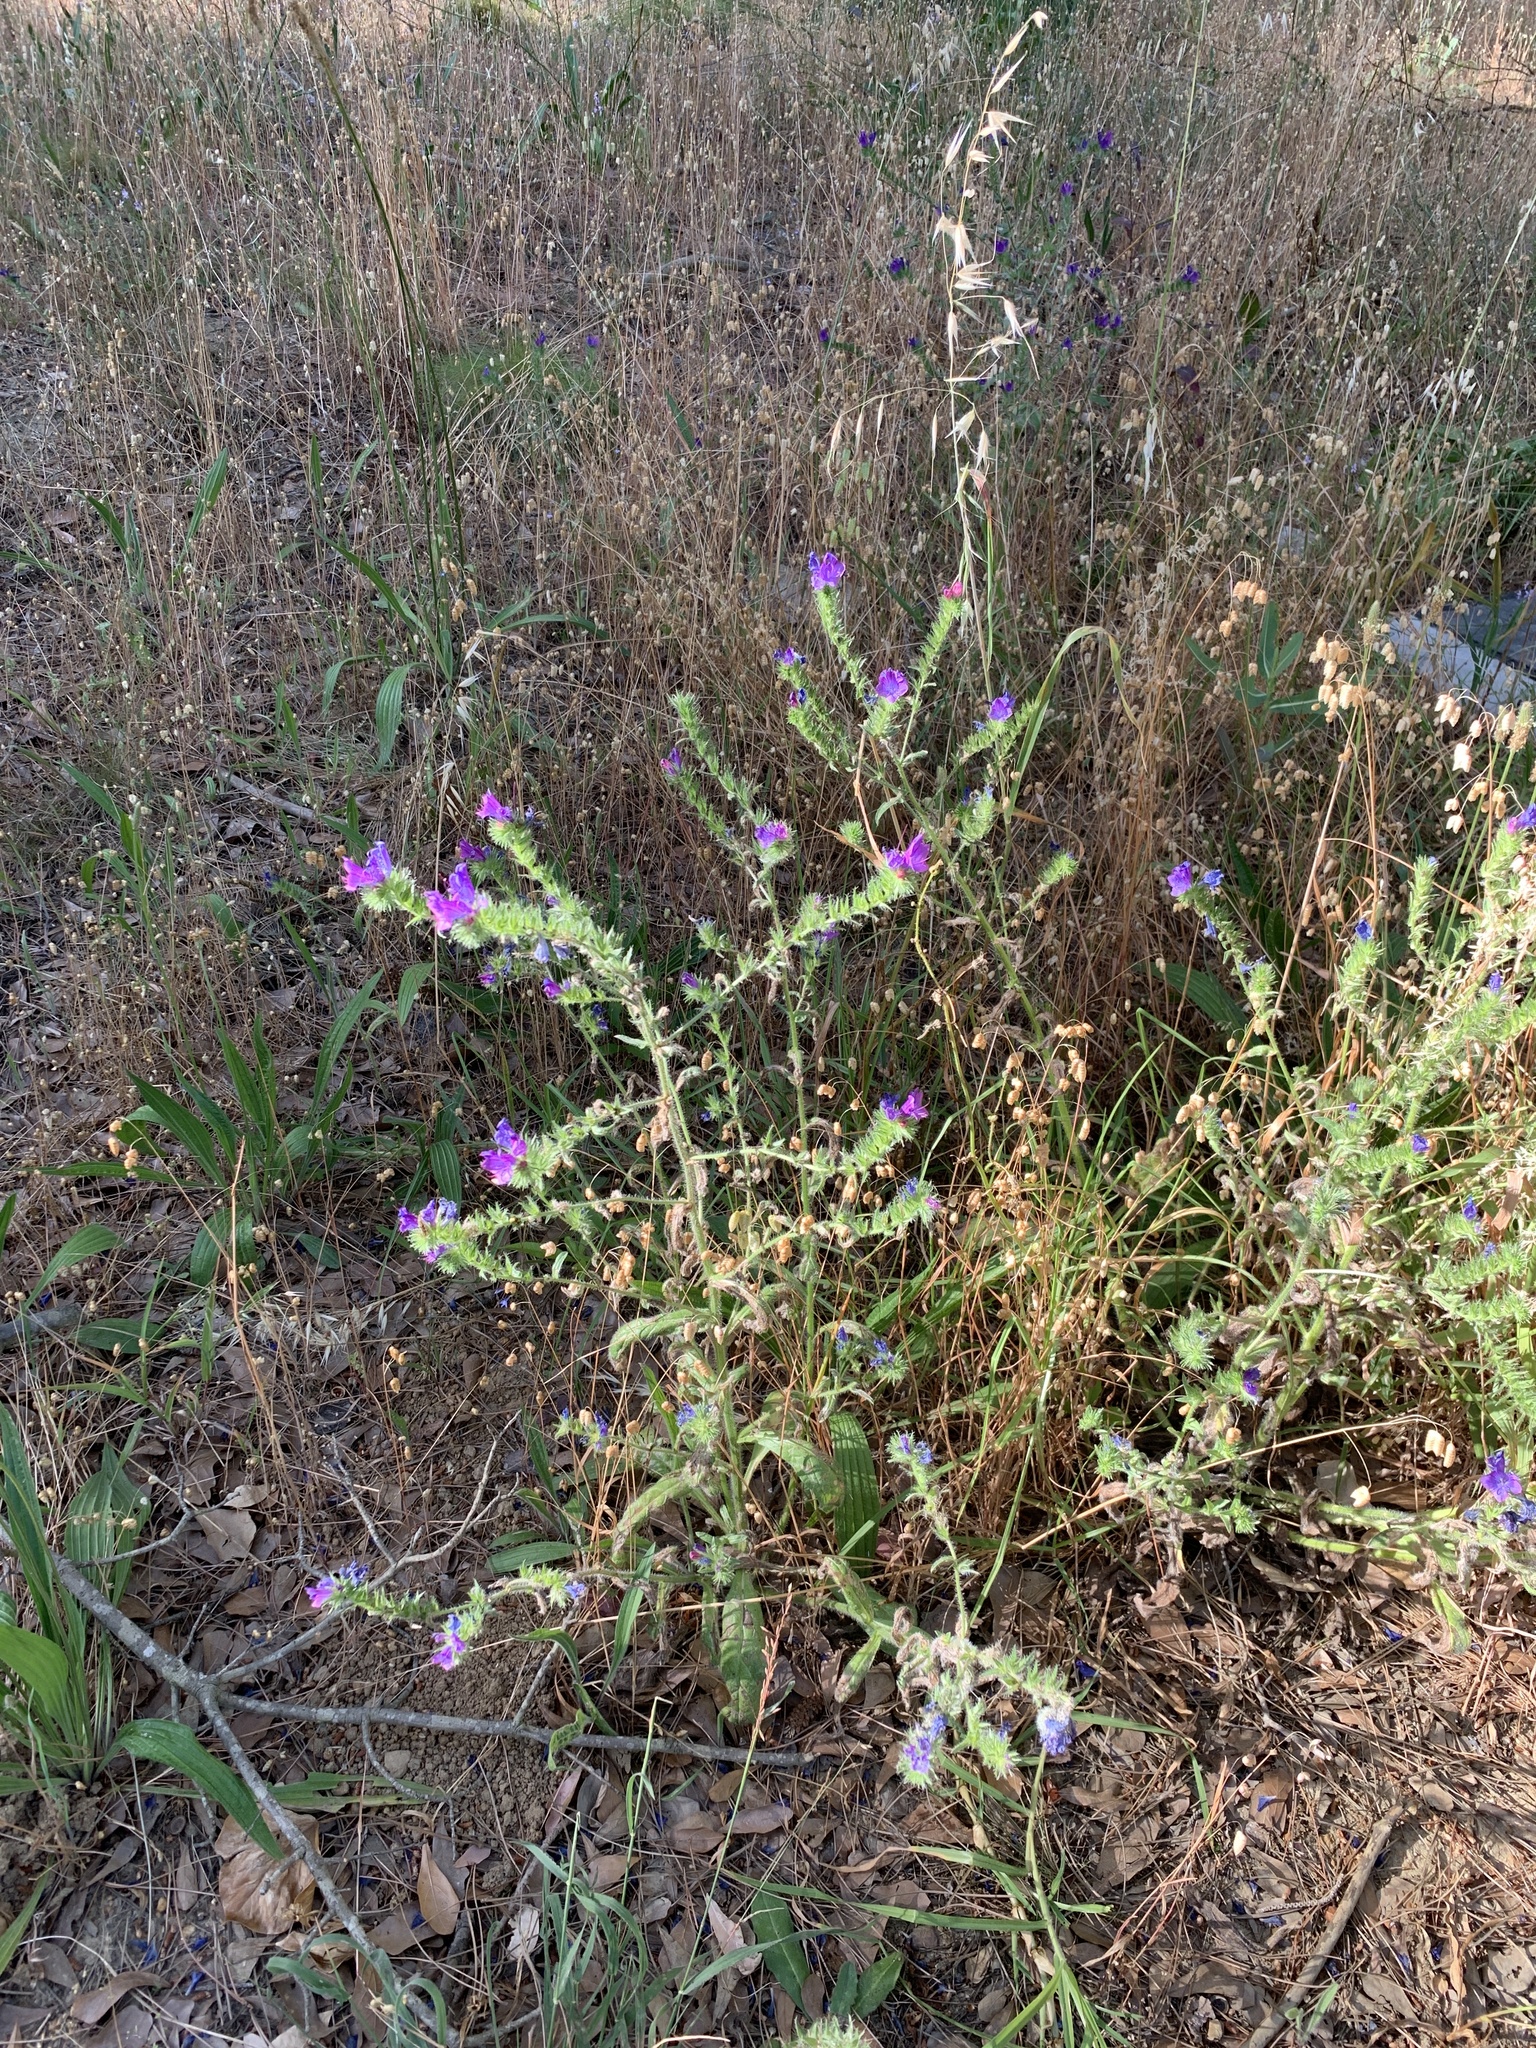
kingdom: Plantae
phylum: Tracheophyta
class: Magnoliopsida
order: Boraginales
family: Boraginaceae
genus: Echium
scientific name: Echium plantagineum
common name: Purple viper's-bugloss
